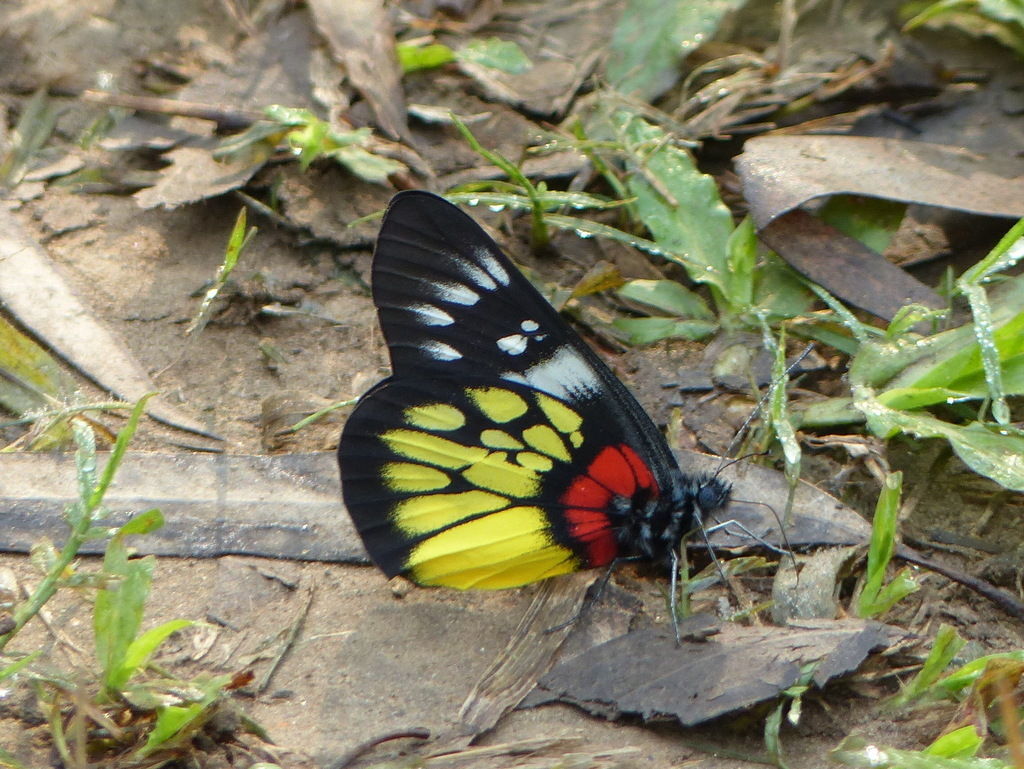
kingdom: Animalia
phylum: Arthropoda
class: Insecta
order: Lepidoptera
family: Pieridae
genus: Delias
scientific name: Delias pasithoe
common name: Red-base jezebel
